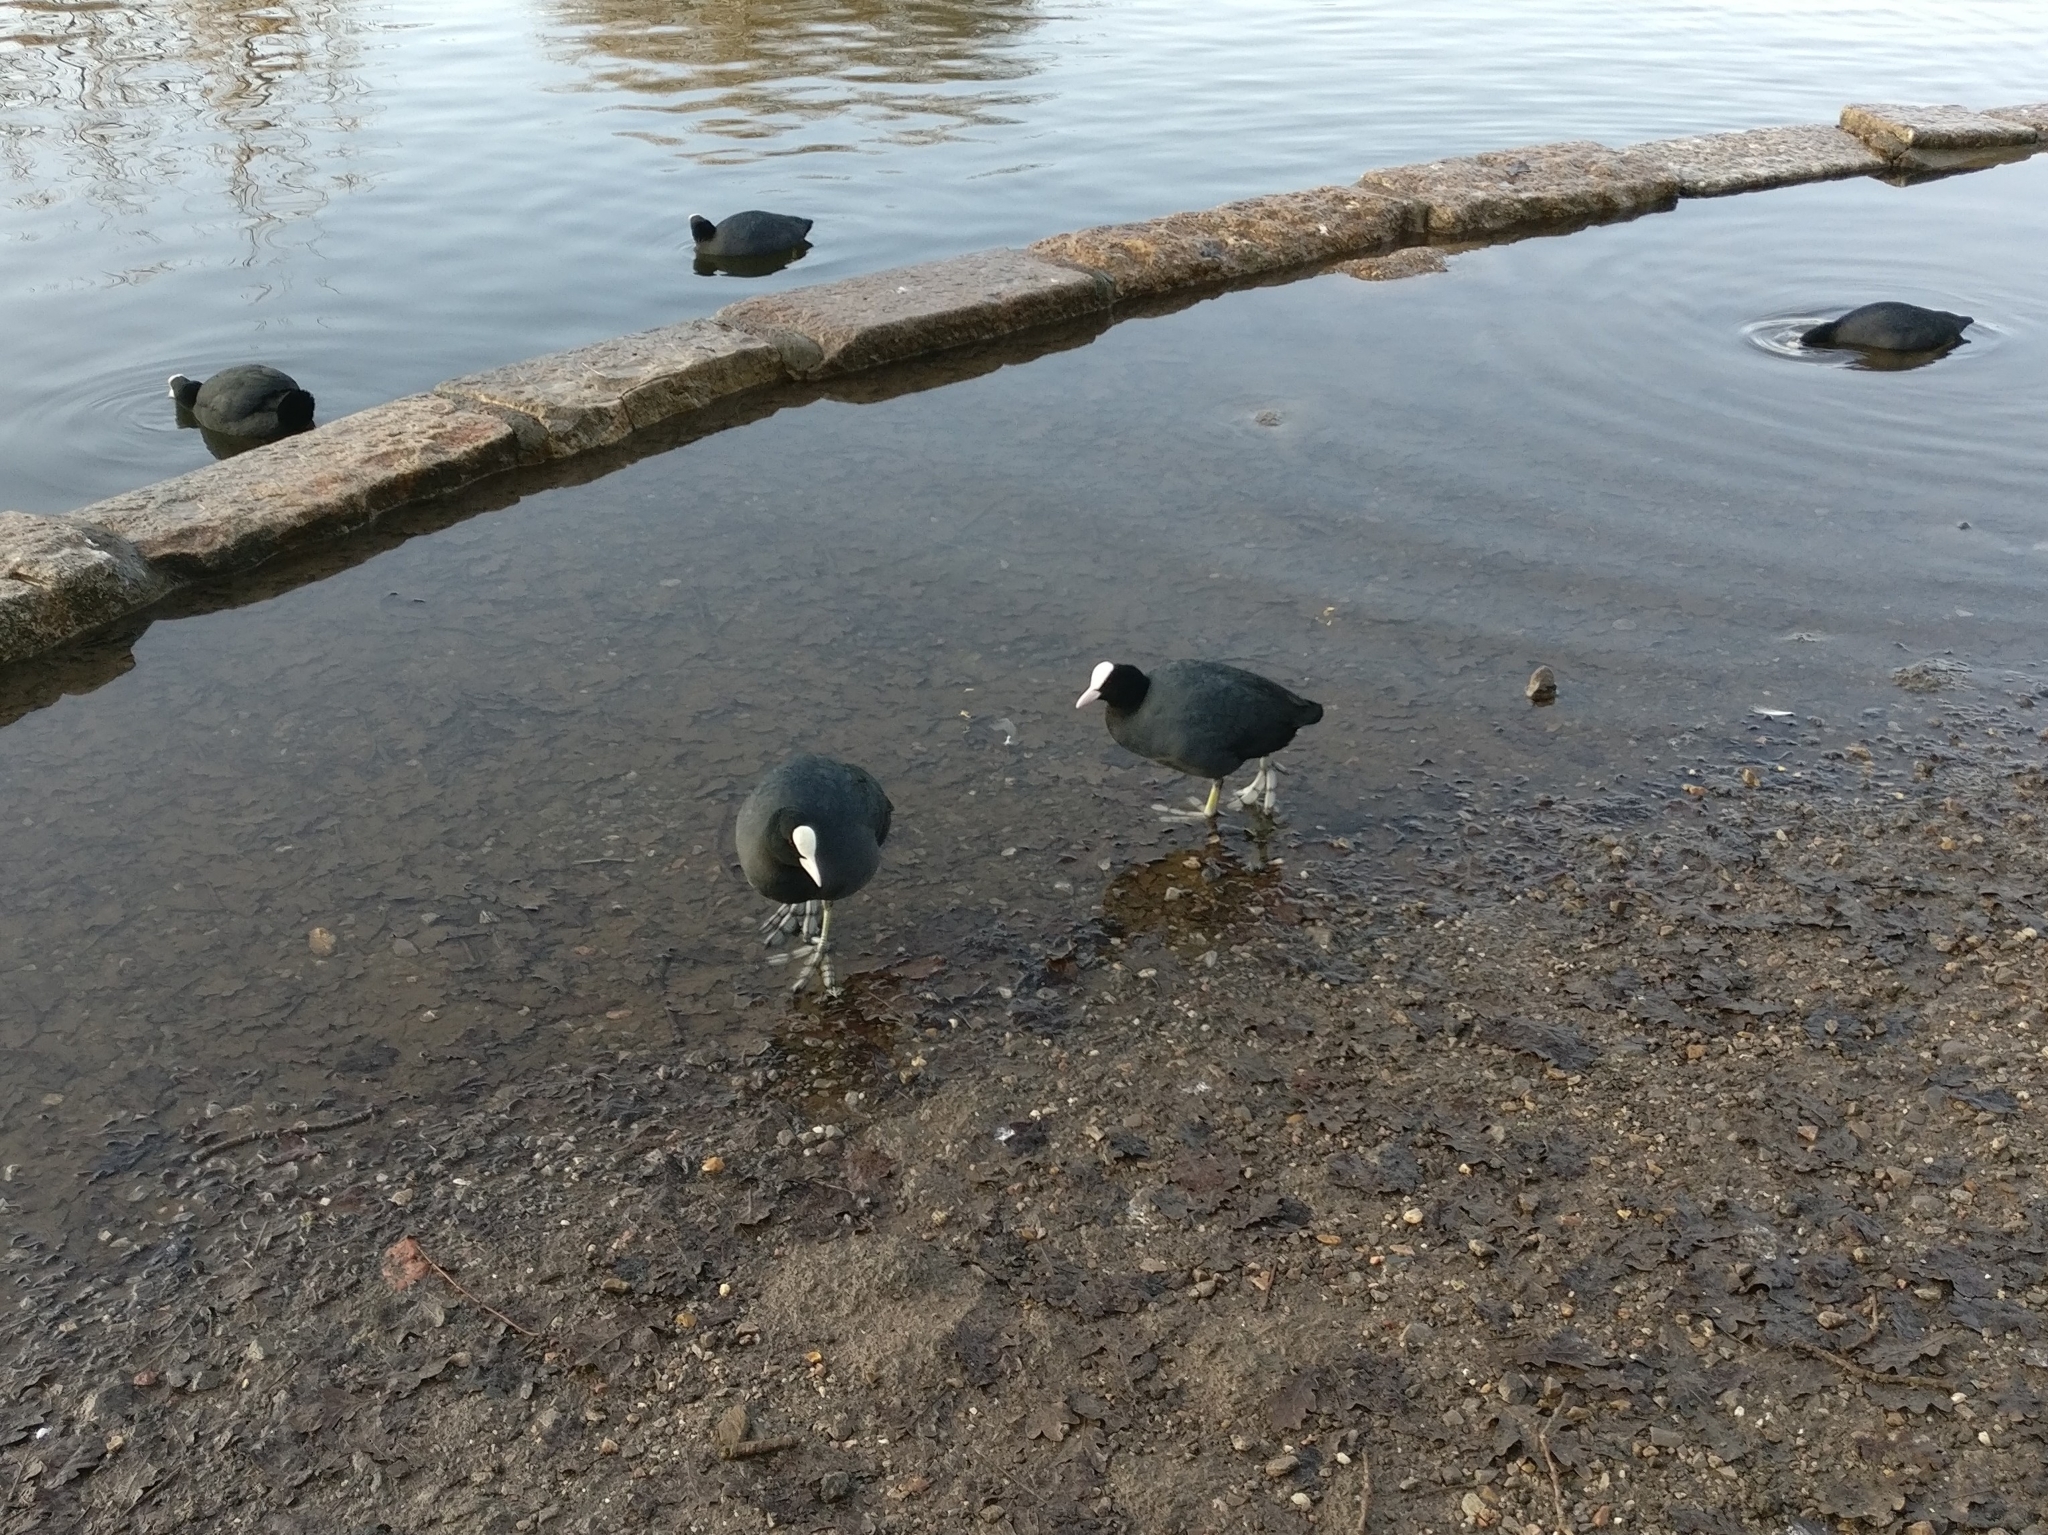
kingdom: Animalia
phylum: Chordata
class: Aves
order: Gruiformes
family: Rallidae
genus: Fulica
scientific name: Fulica atra
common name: Eurasian coot
